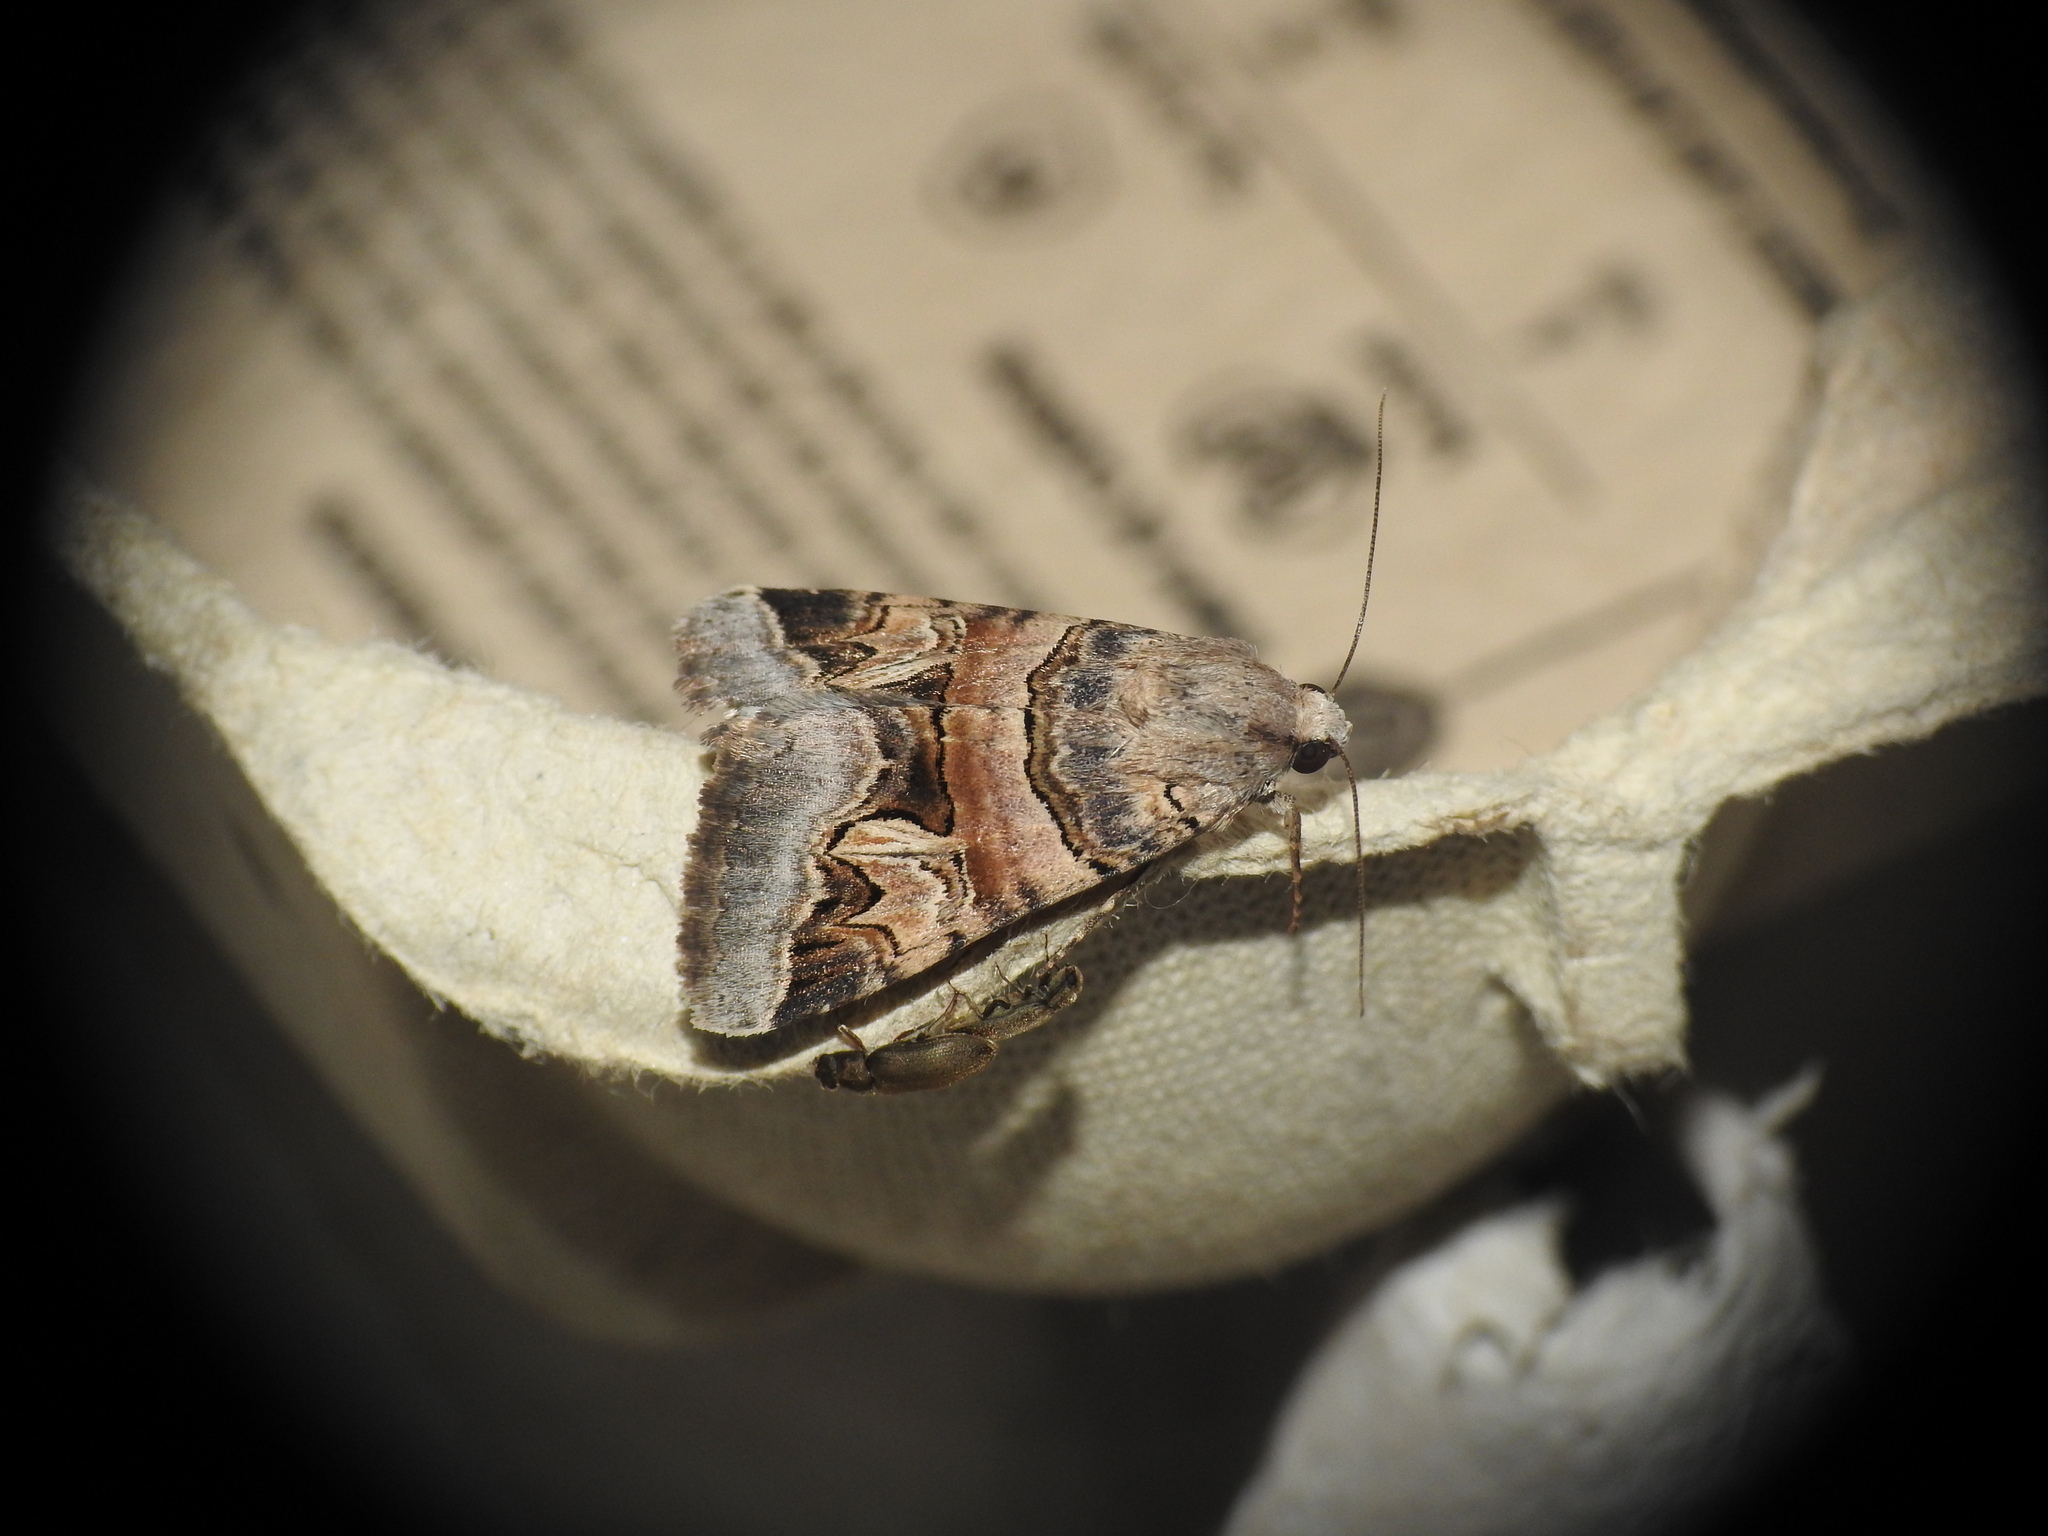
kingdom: Animalia
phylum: Arthropoda
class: Insecta
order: Lepidoptera
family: Erebidae
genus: Drasteria
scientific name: Drasteria cailino
